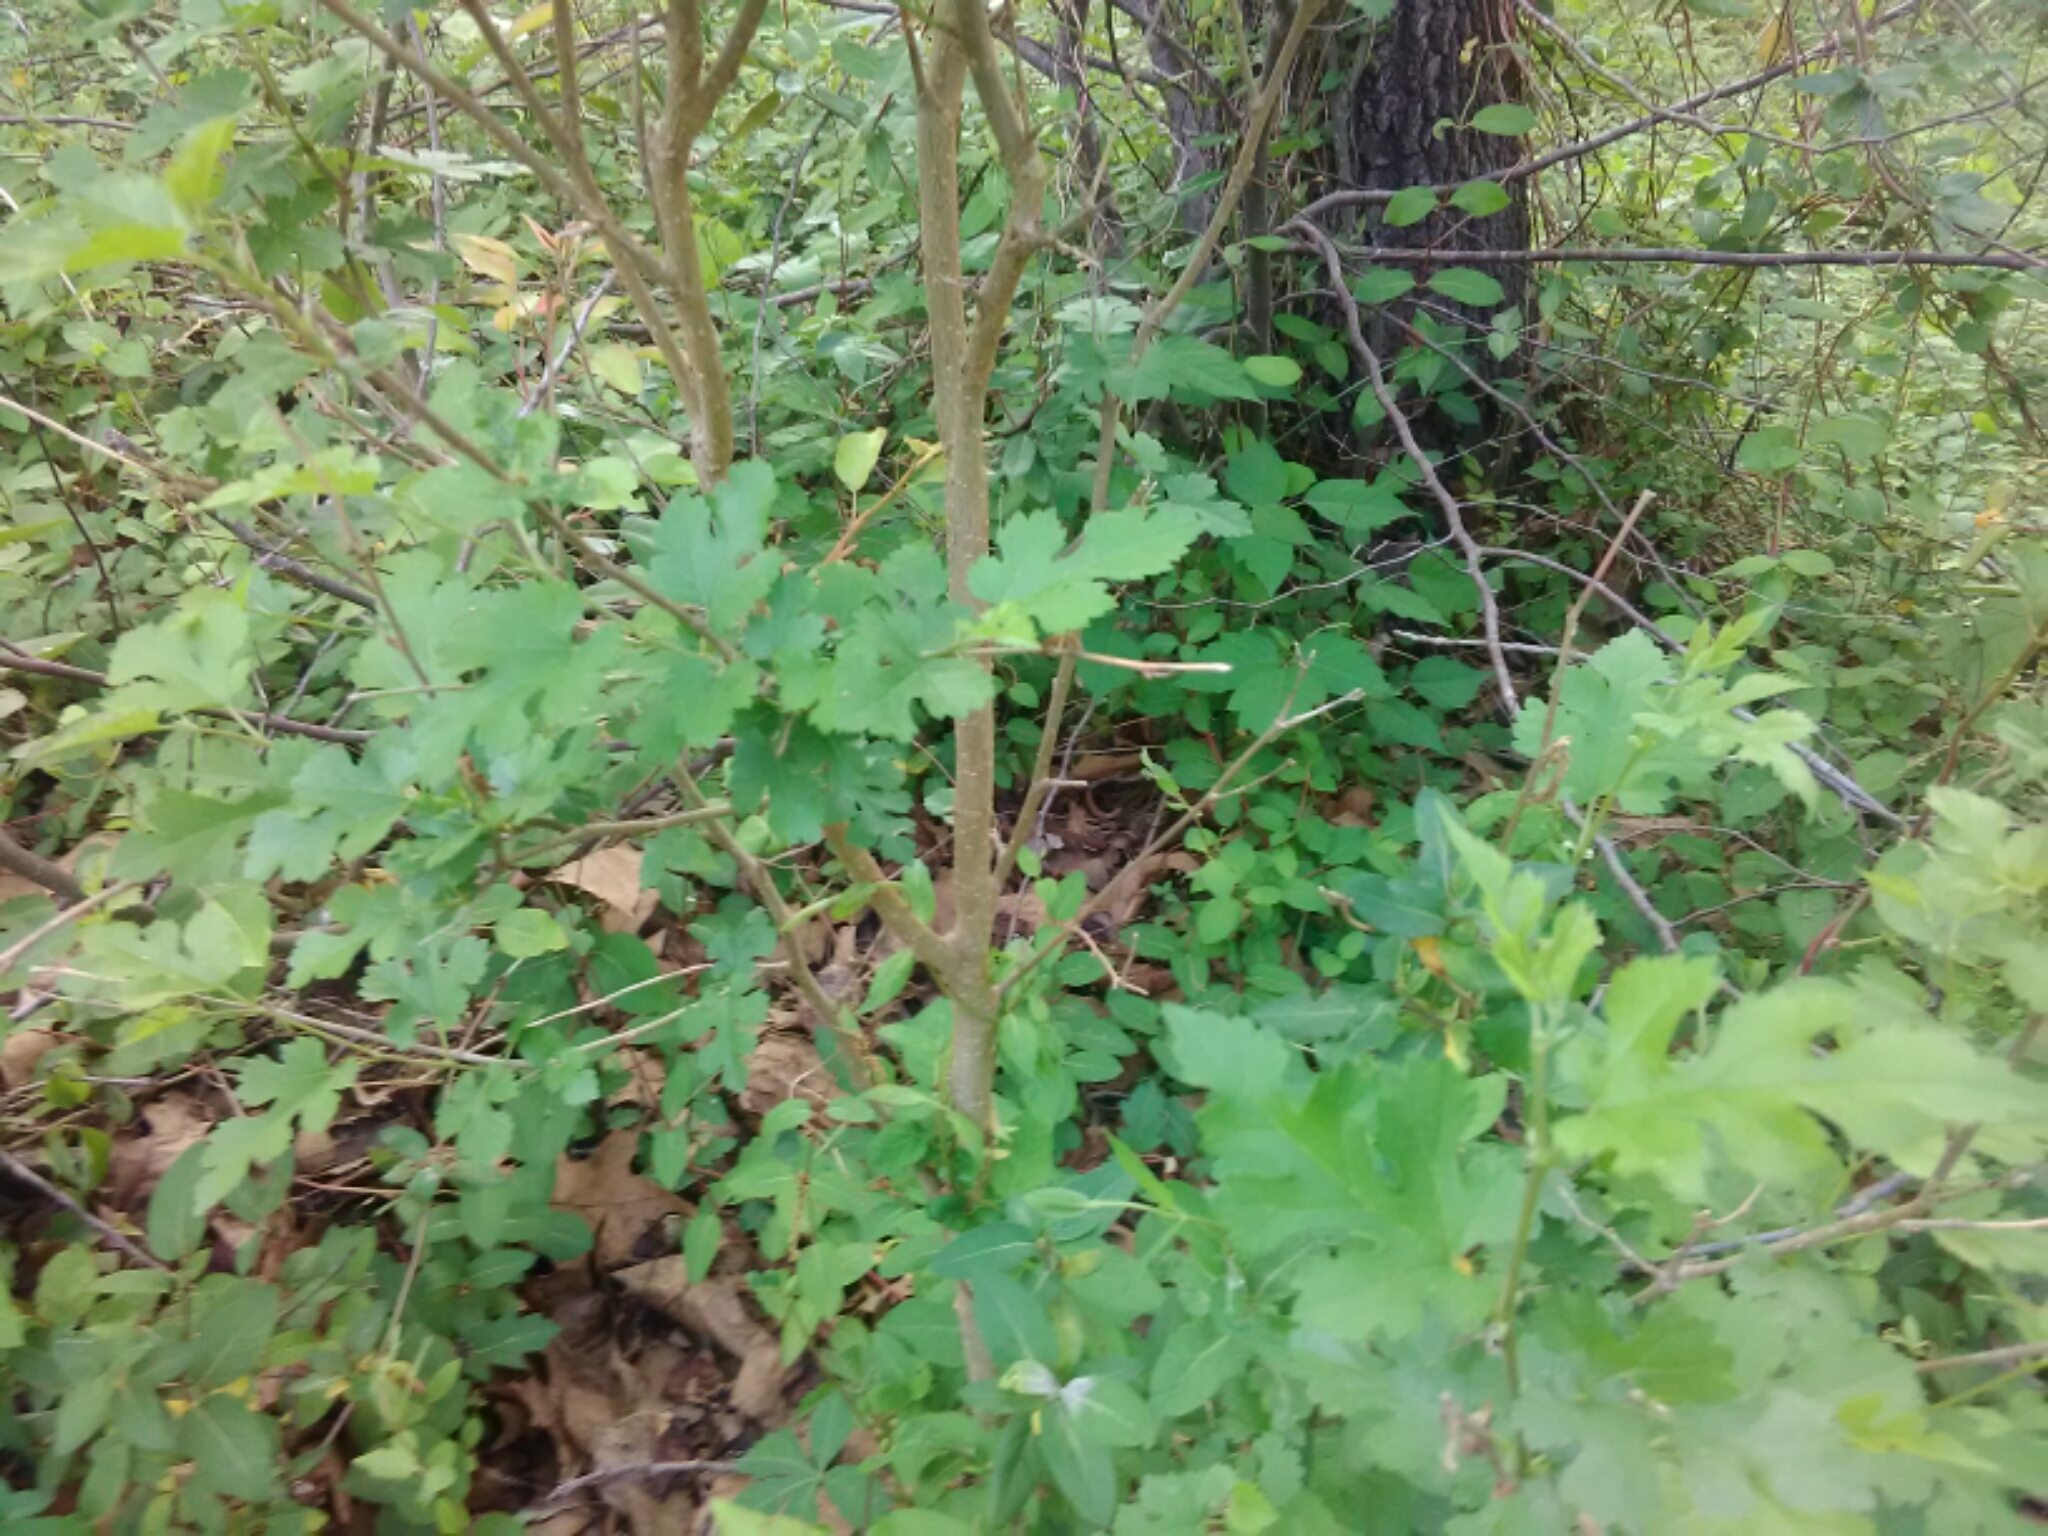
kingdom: Plantae
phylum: Tracheophyta
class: Magnoliopsida
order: Rosales
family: Moraceae
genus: Morus
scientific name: Morus alba
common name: White mulberry
